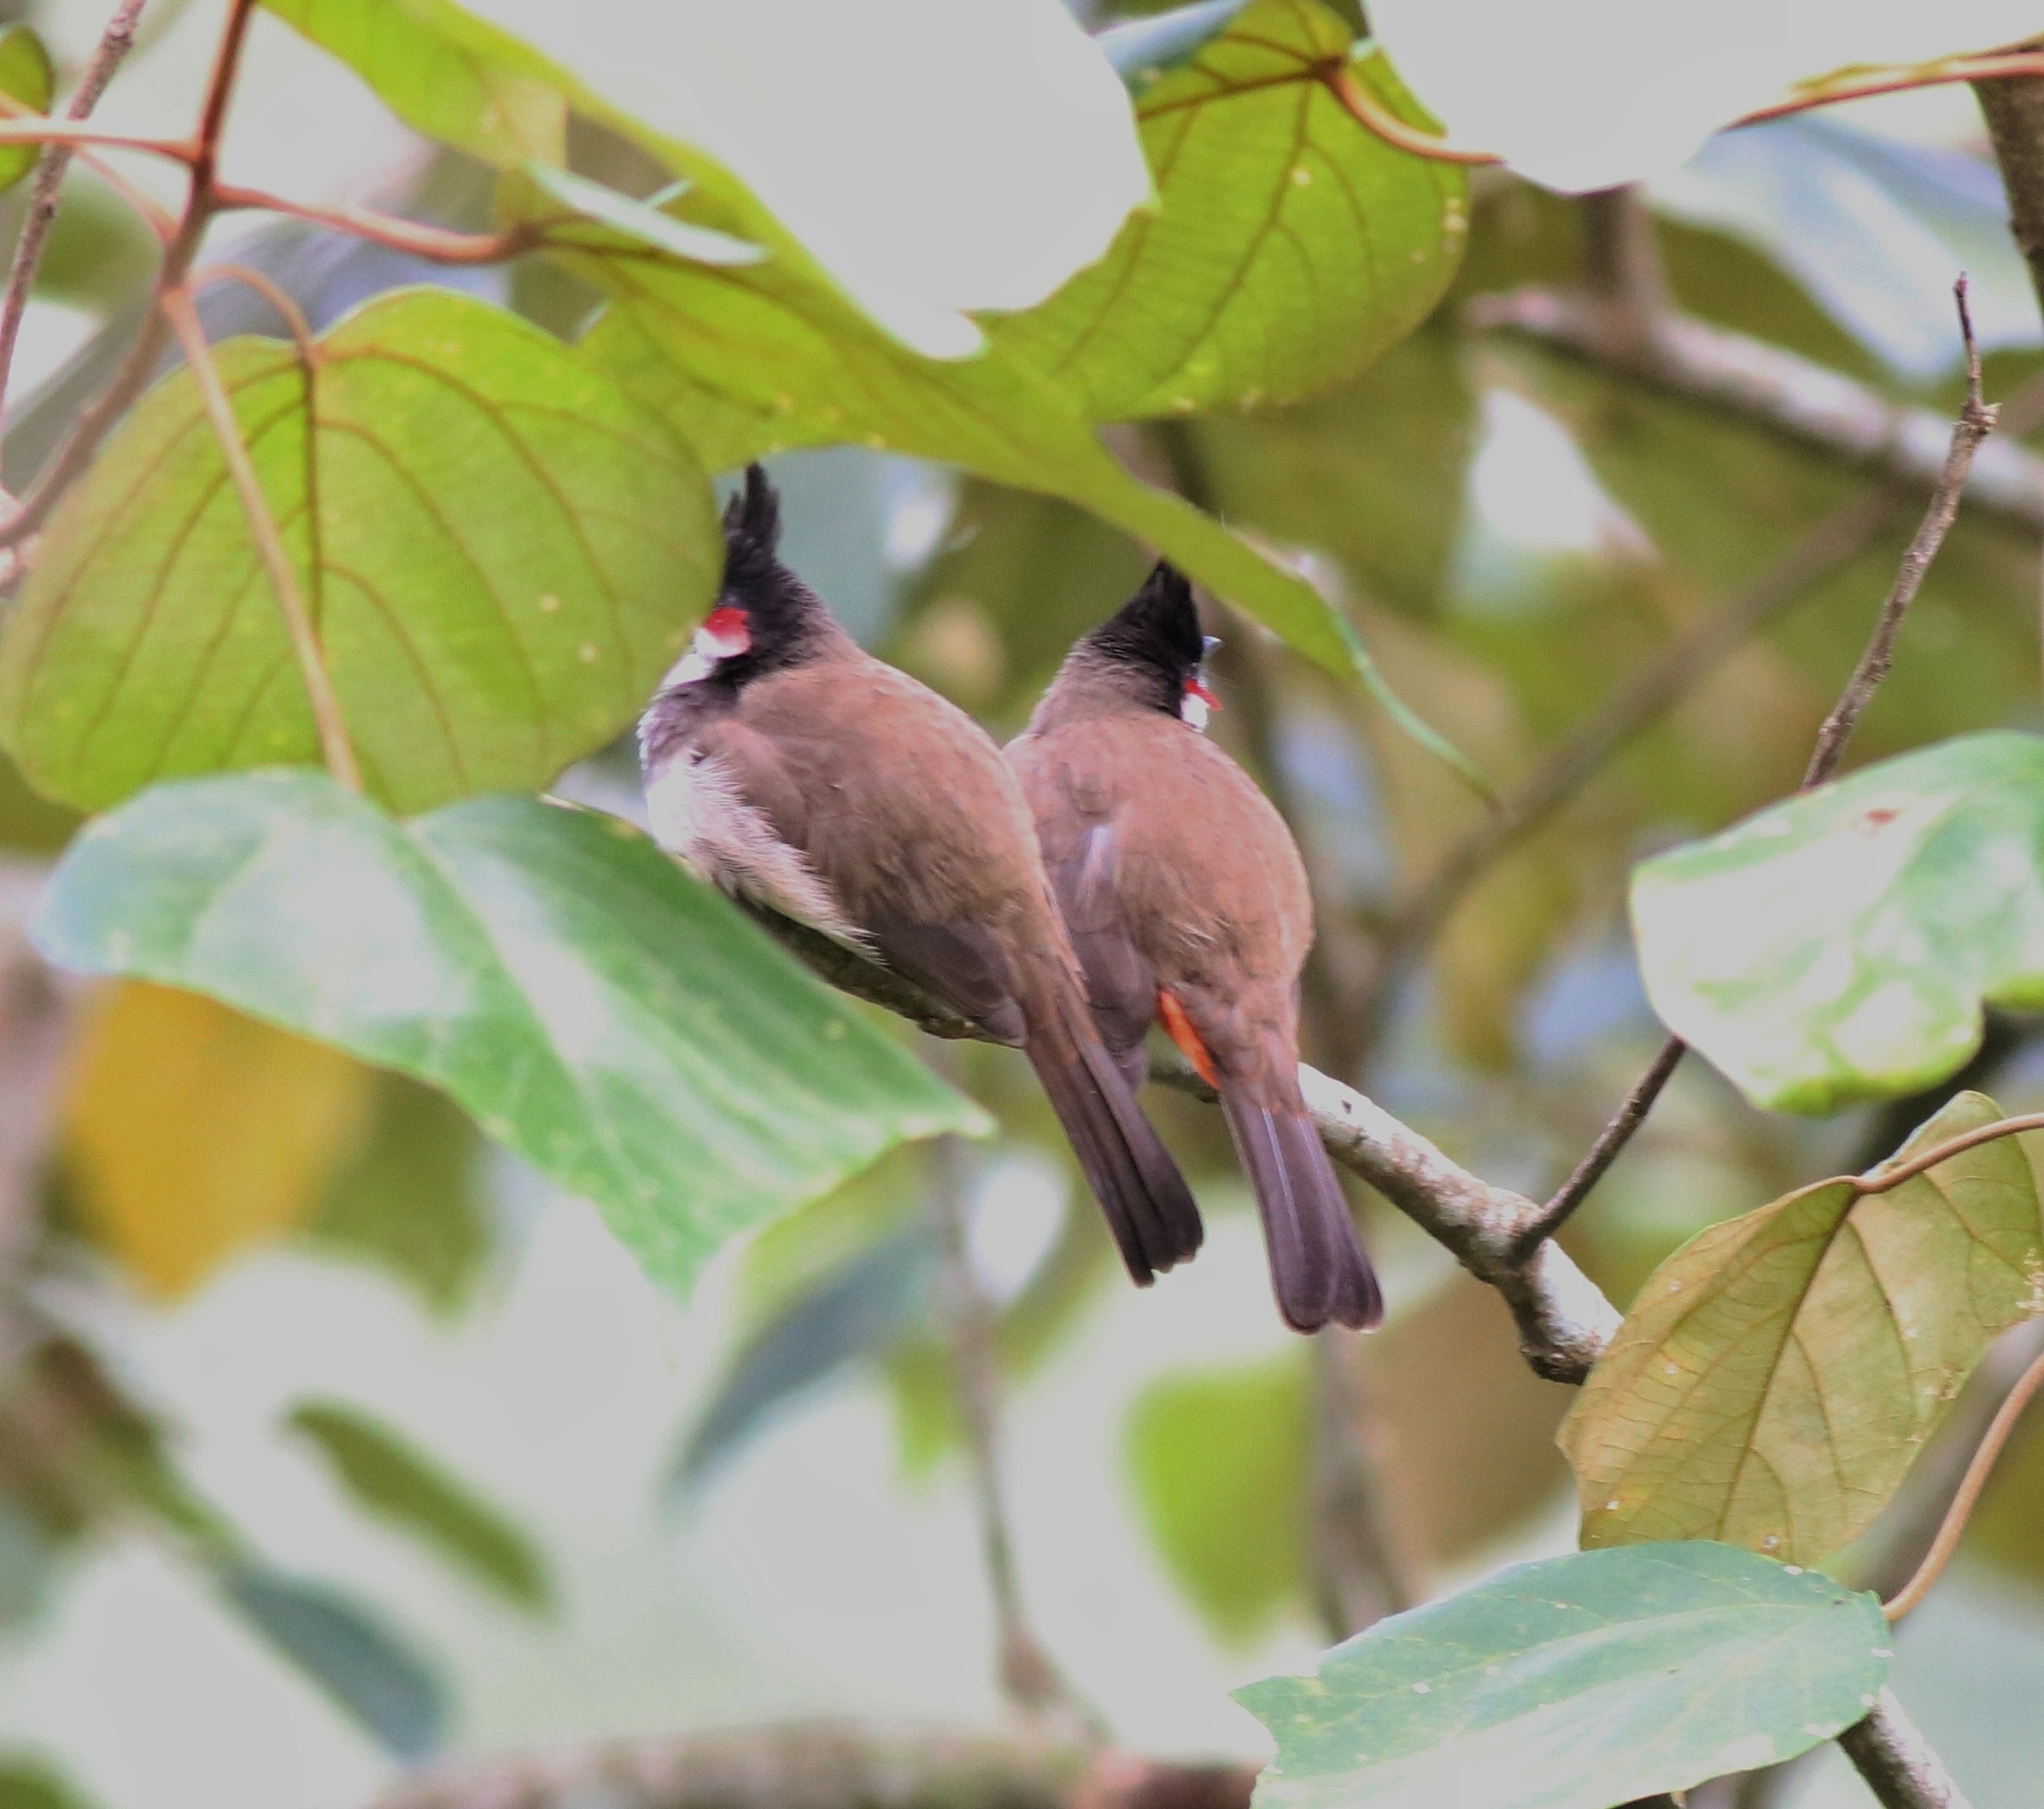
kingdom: Animalia
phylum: Chordata
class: Aves
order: Passeriformes
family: Pycnonotidae
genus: Pycnonotus
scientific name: Pycnonotus jocosus
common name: Red-whiskered bulbul
